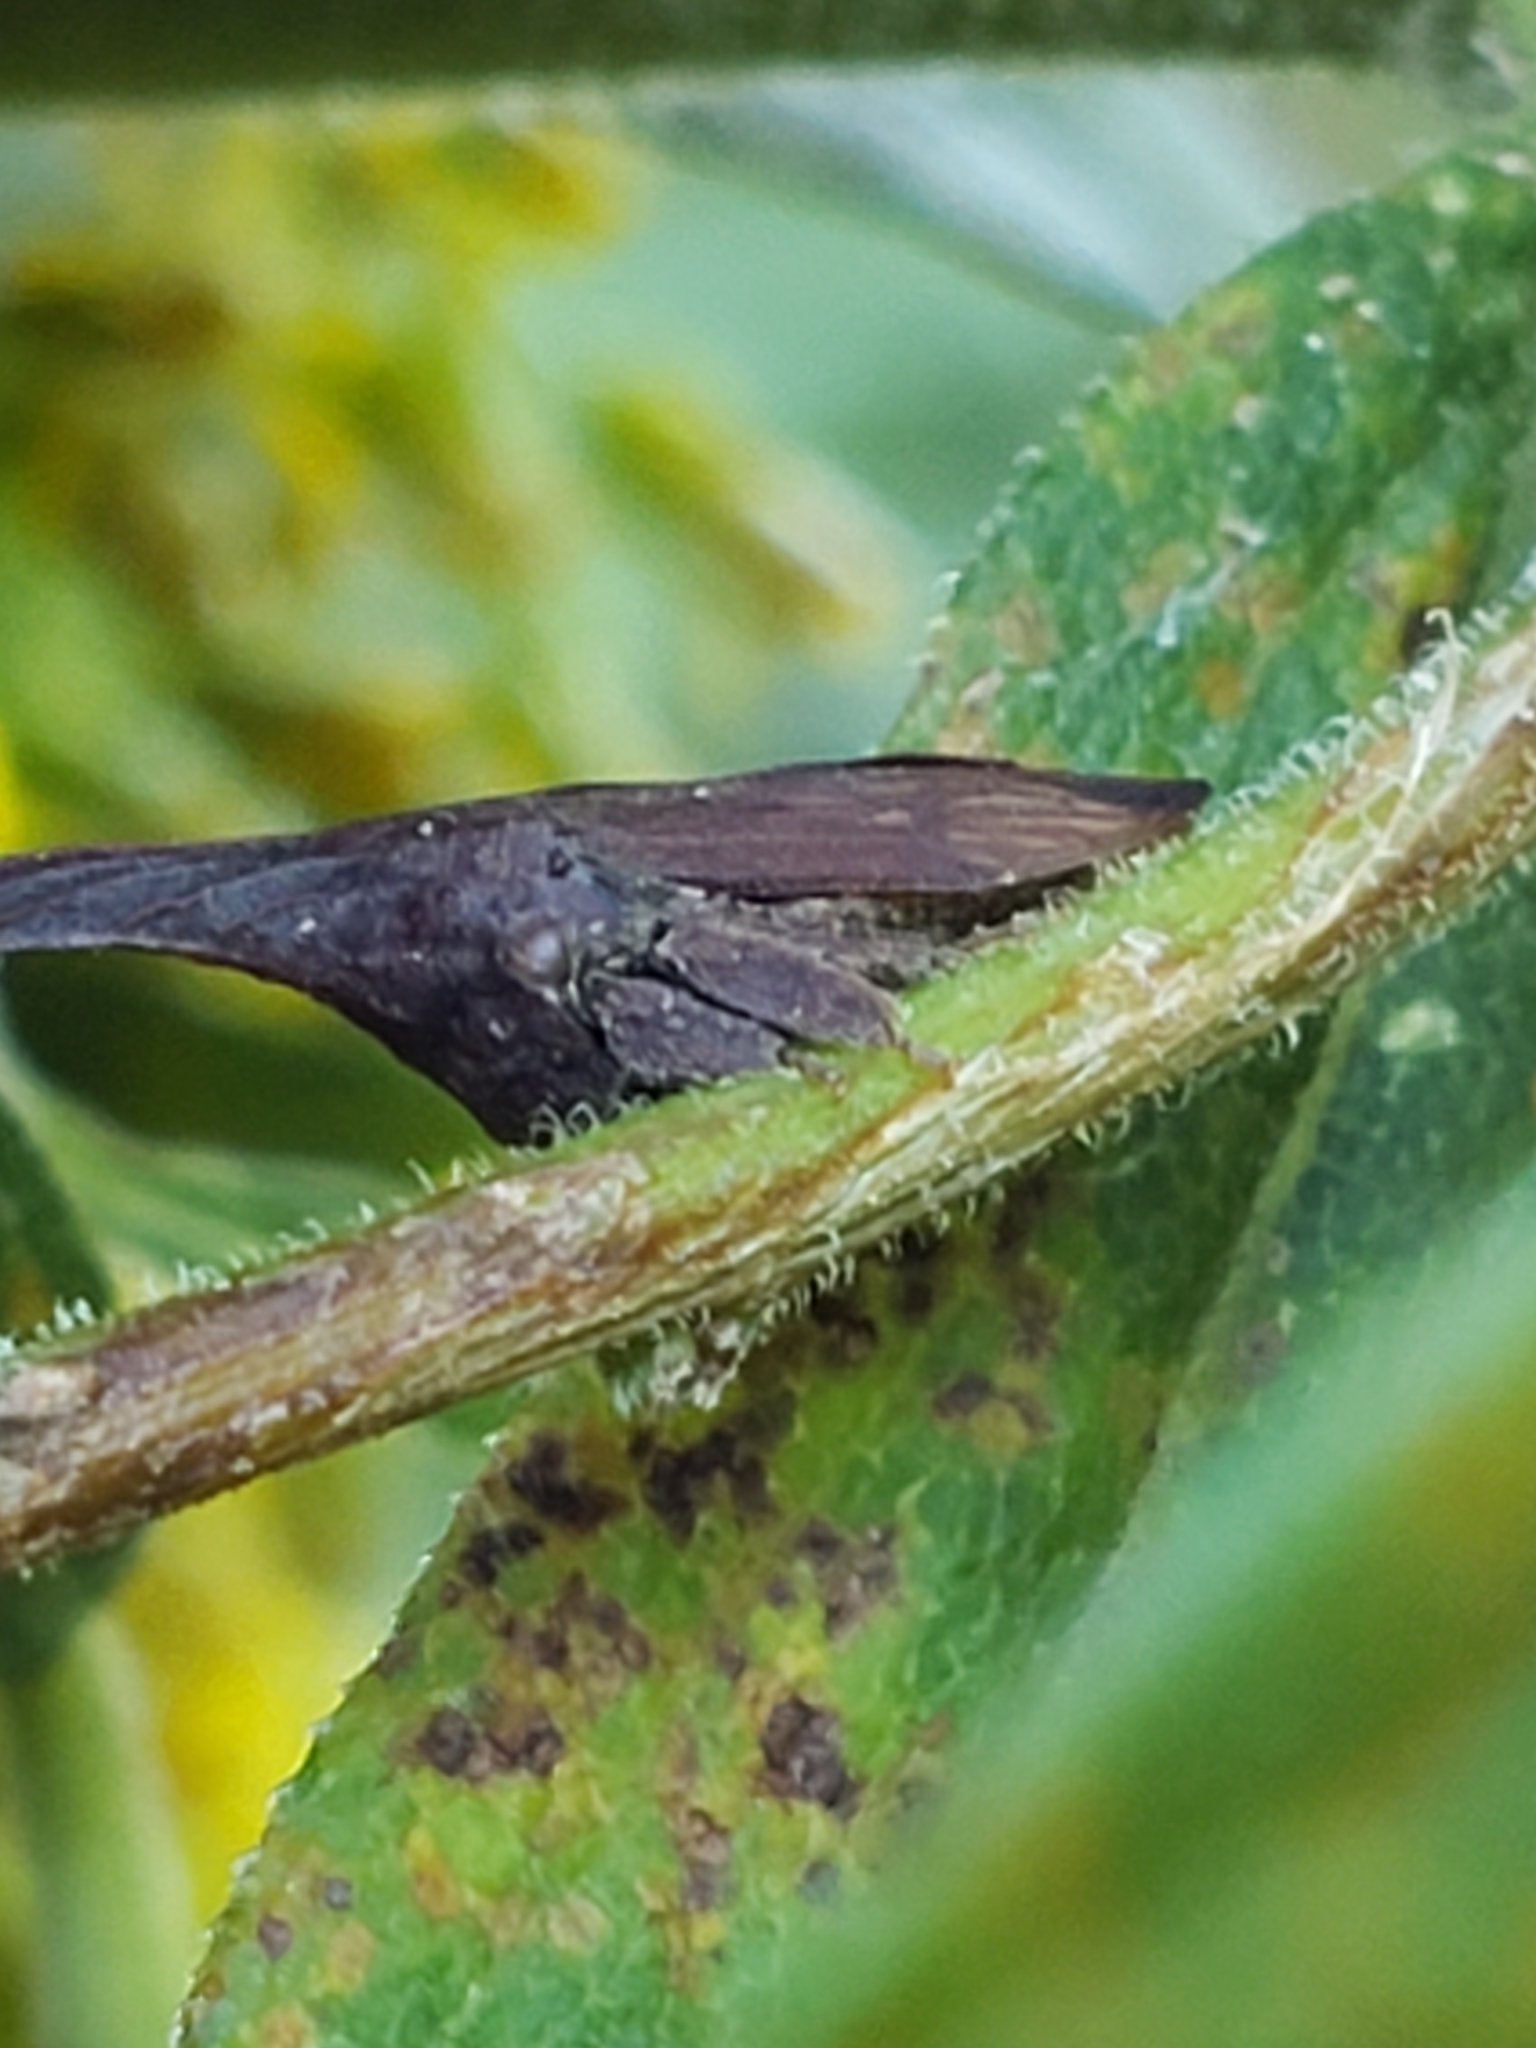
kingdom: Animalia
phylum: Arthropoda
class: Insecta
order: Hemiptera
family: Membracidae
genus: Enchenopa
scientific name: Enchenopa latipes
